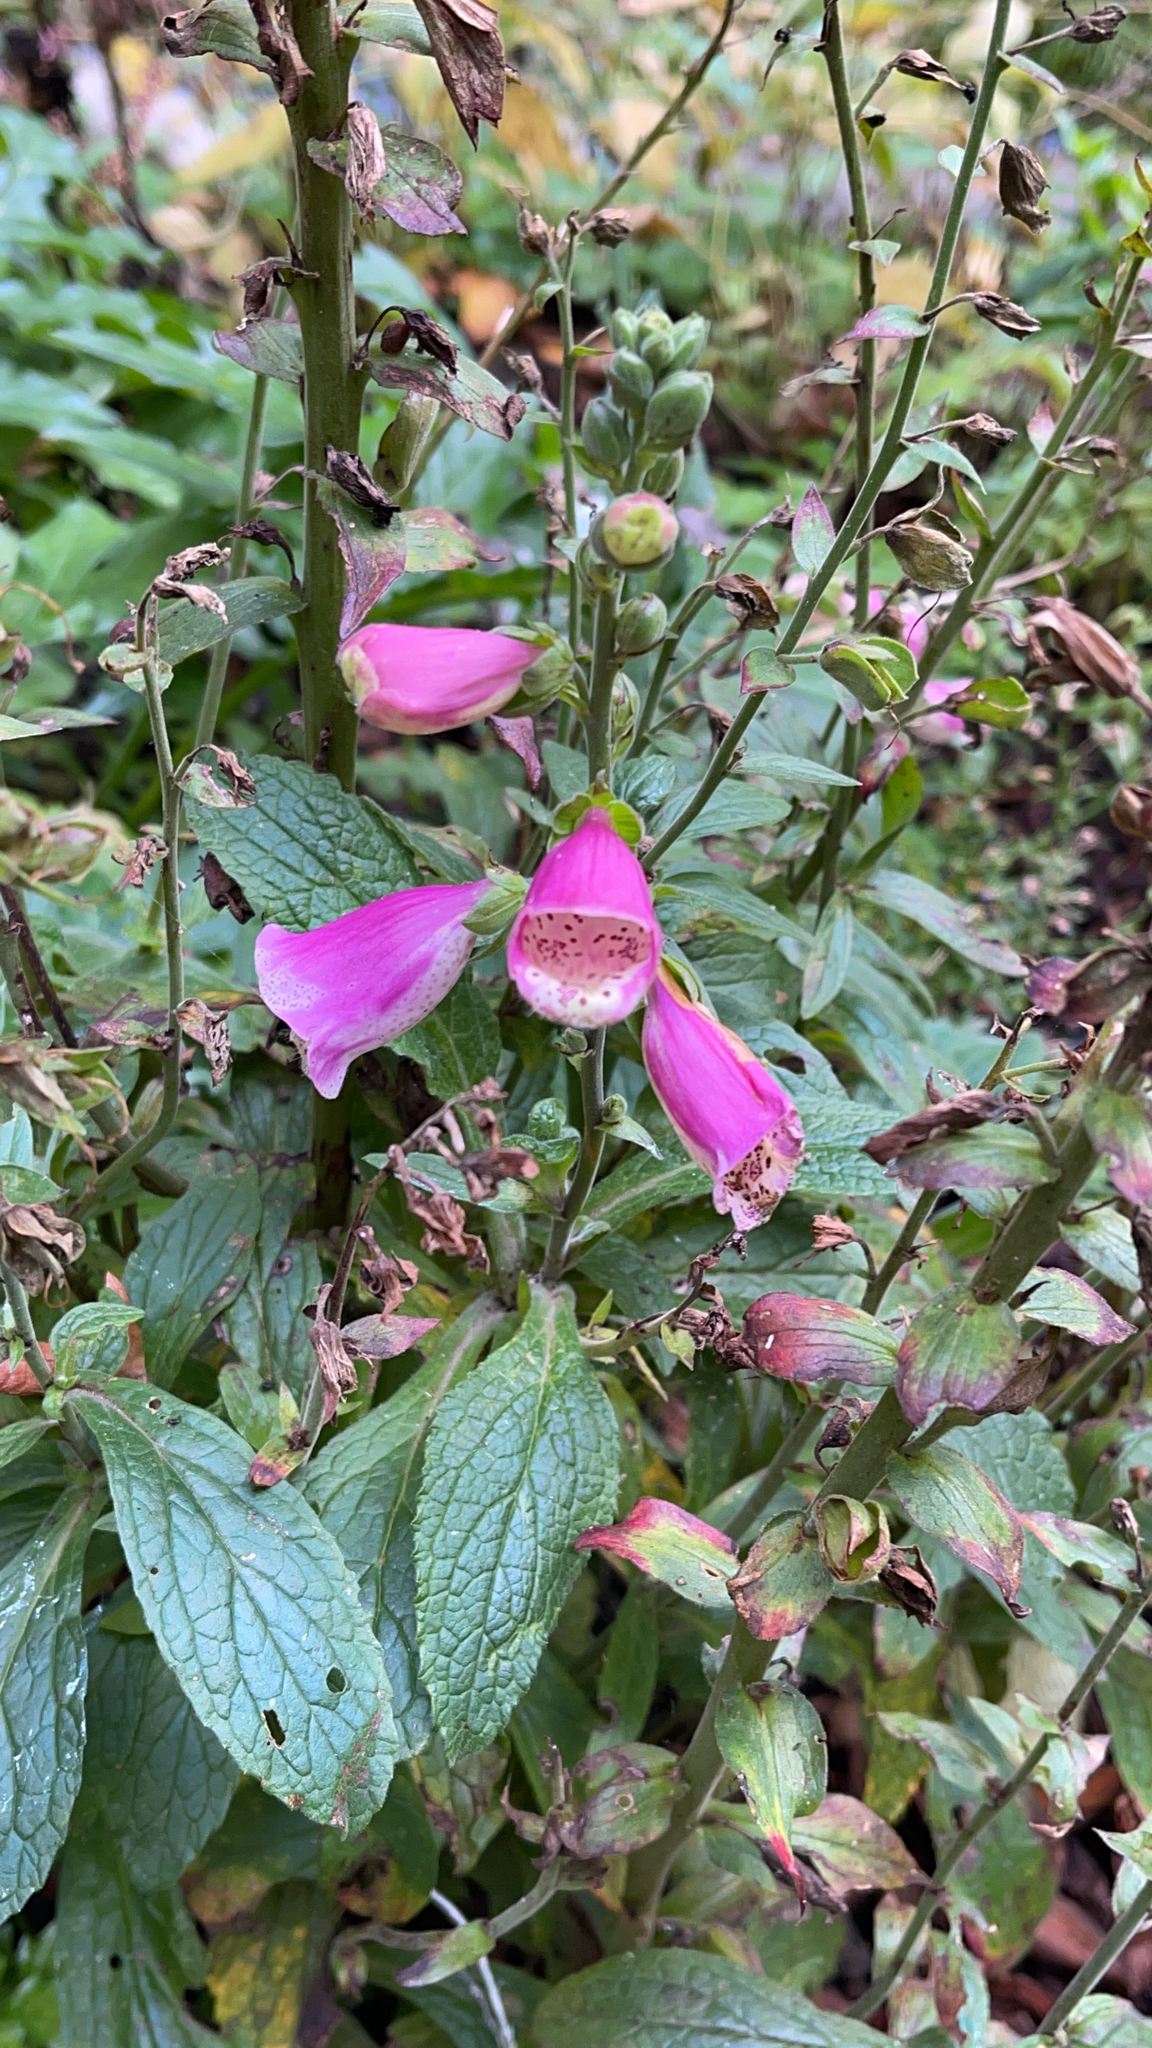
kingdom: Plantae
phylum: Tracheophyta
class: Magnoliopsida
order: Lamiales
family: Plantaginaceae
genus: Digitalis
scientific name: Digitalis purpurea
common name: Foxglove
